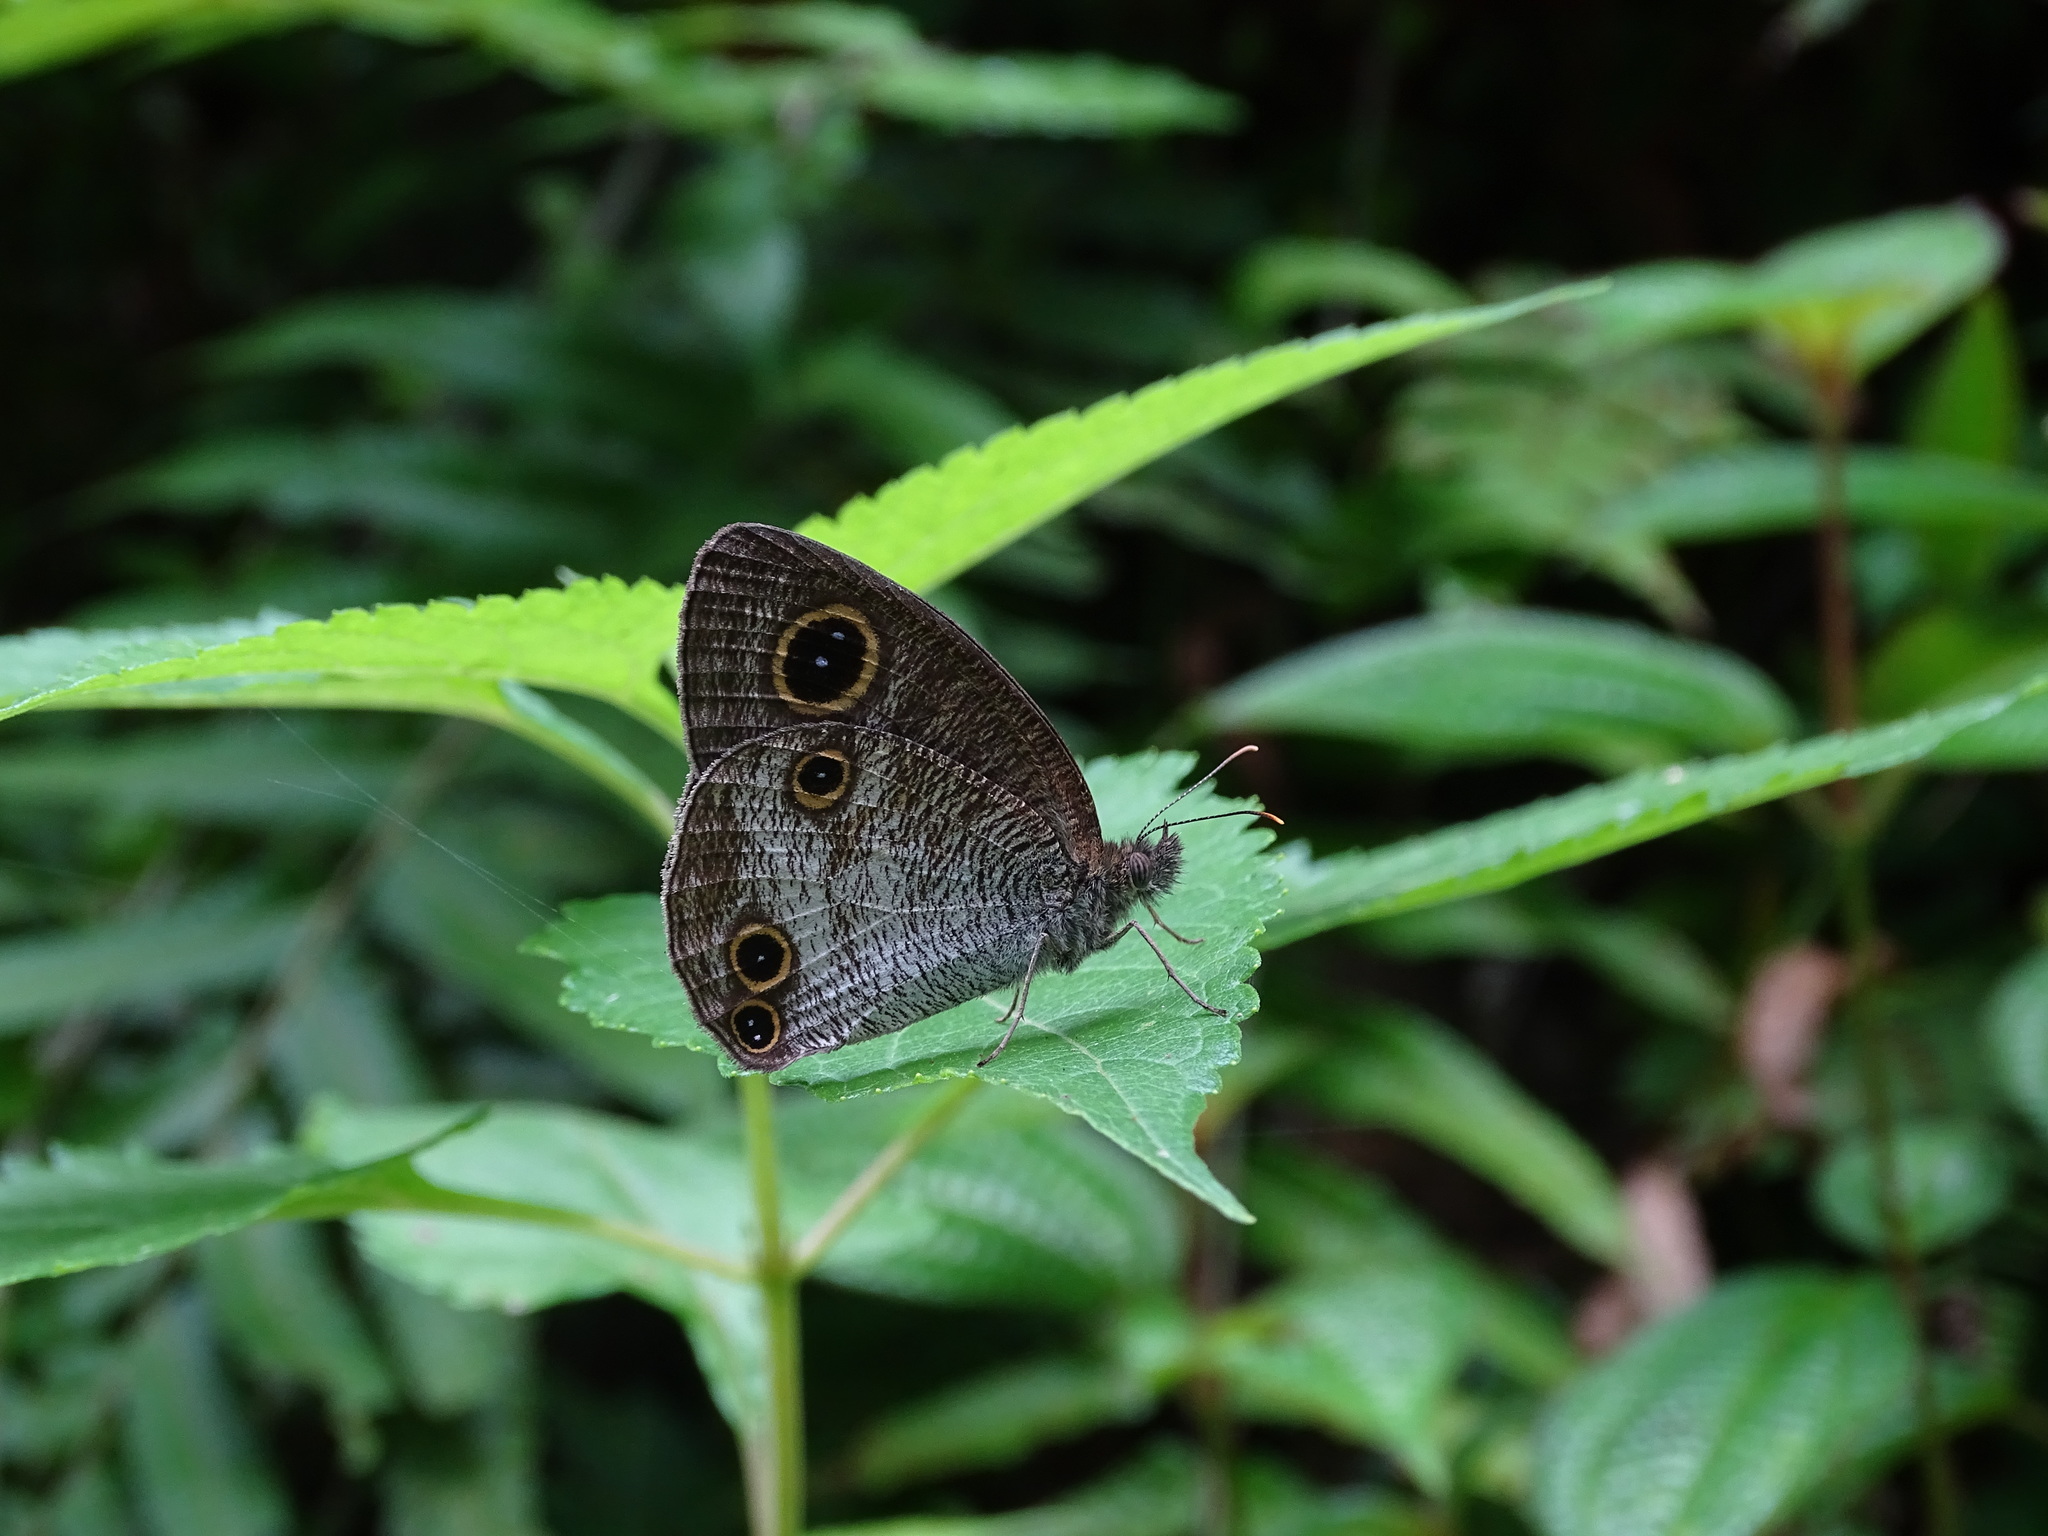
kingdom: Animalia
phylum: Arthropoda
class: Insecta
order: Lepidoptera
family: Nymphalidae
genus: Ypthima
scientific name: Ypthima pandocus
